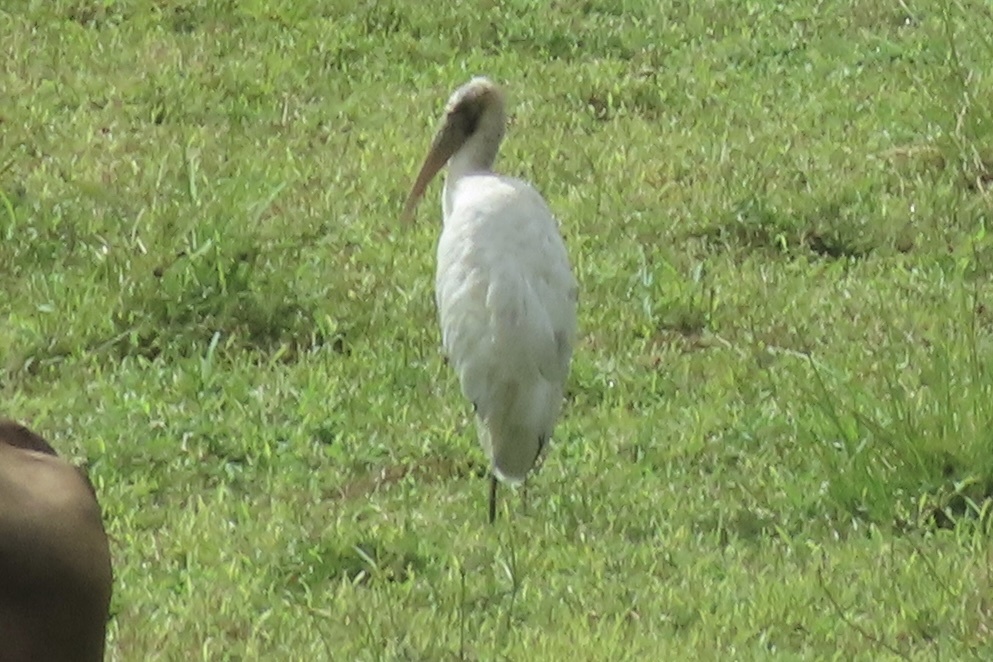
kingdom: Animalia
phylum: Chordata
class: Aves
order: Ciconiiformes
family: Ciconiidae
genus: Mycteria
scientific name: Mycteria americana
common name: Wood stork
